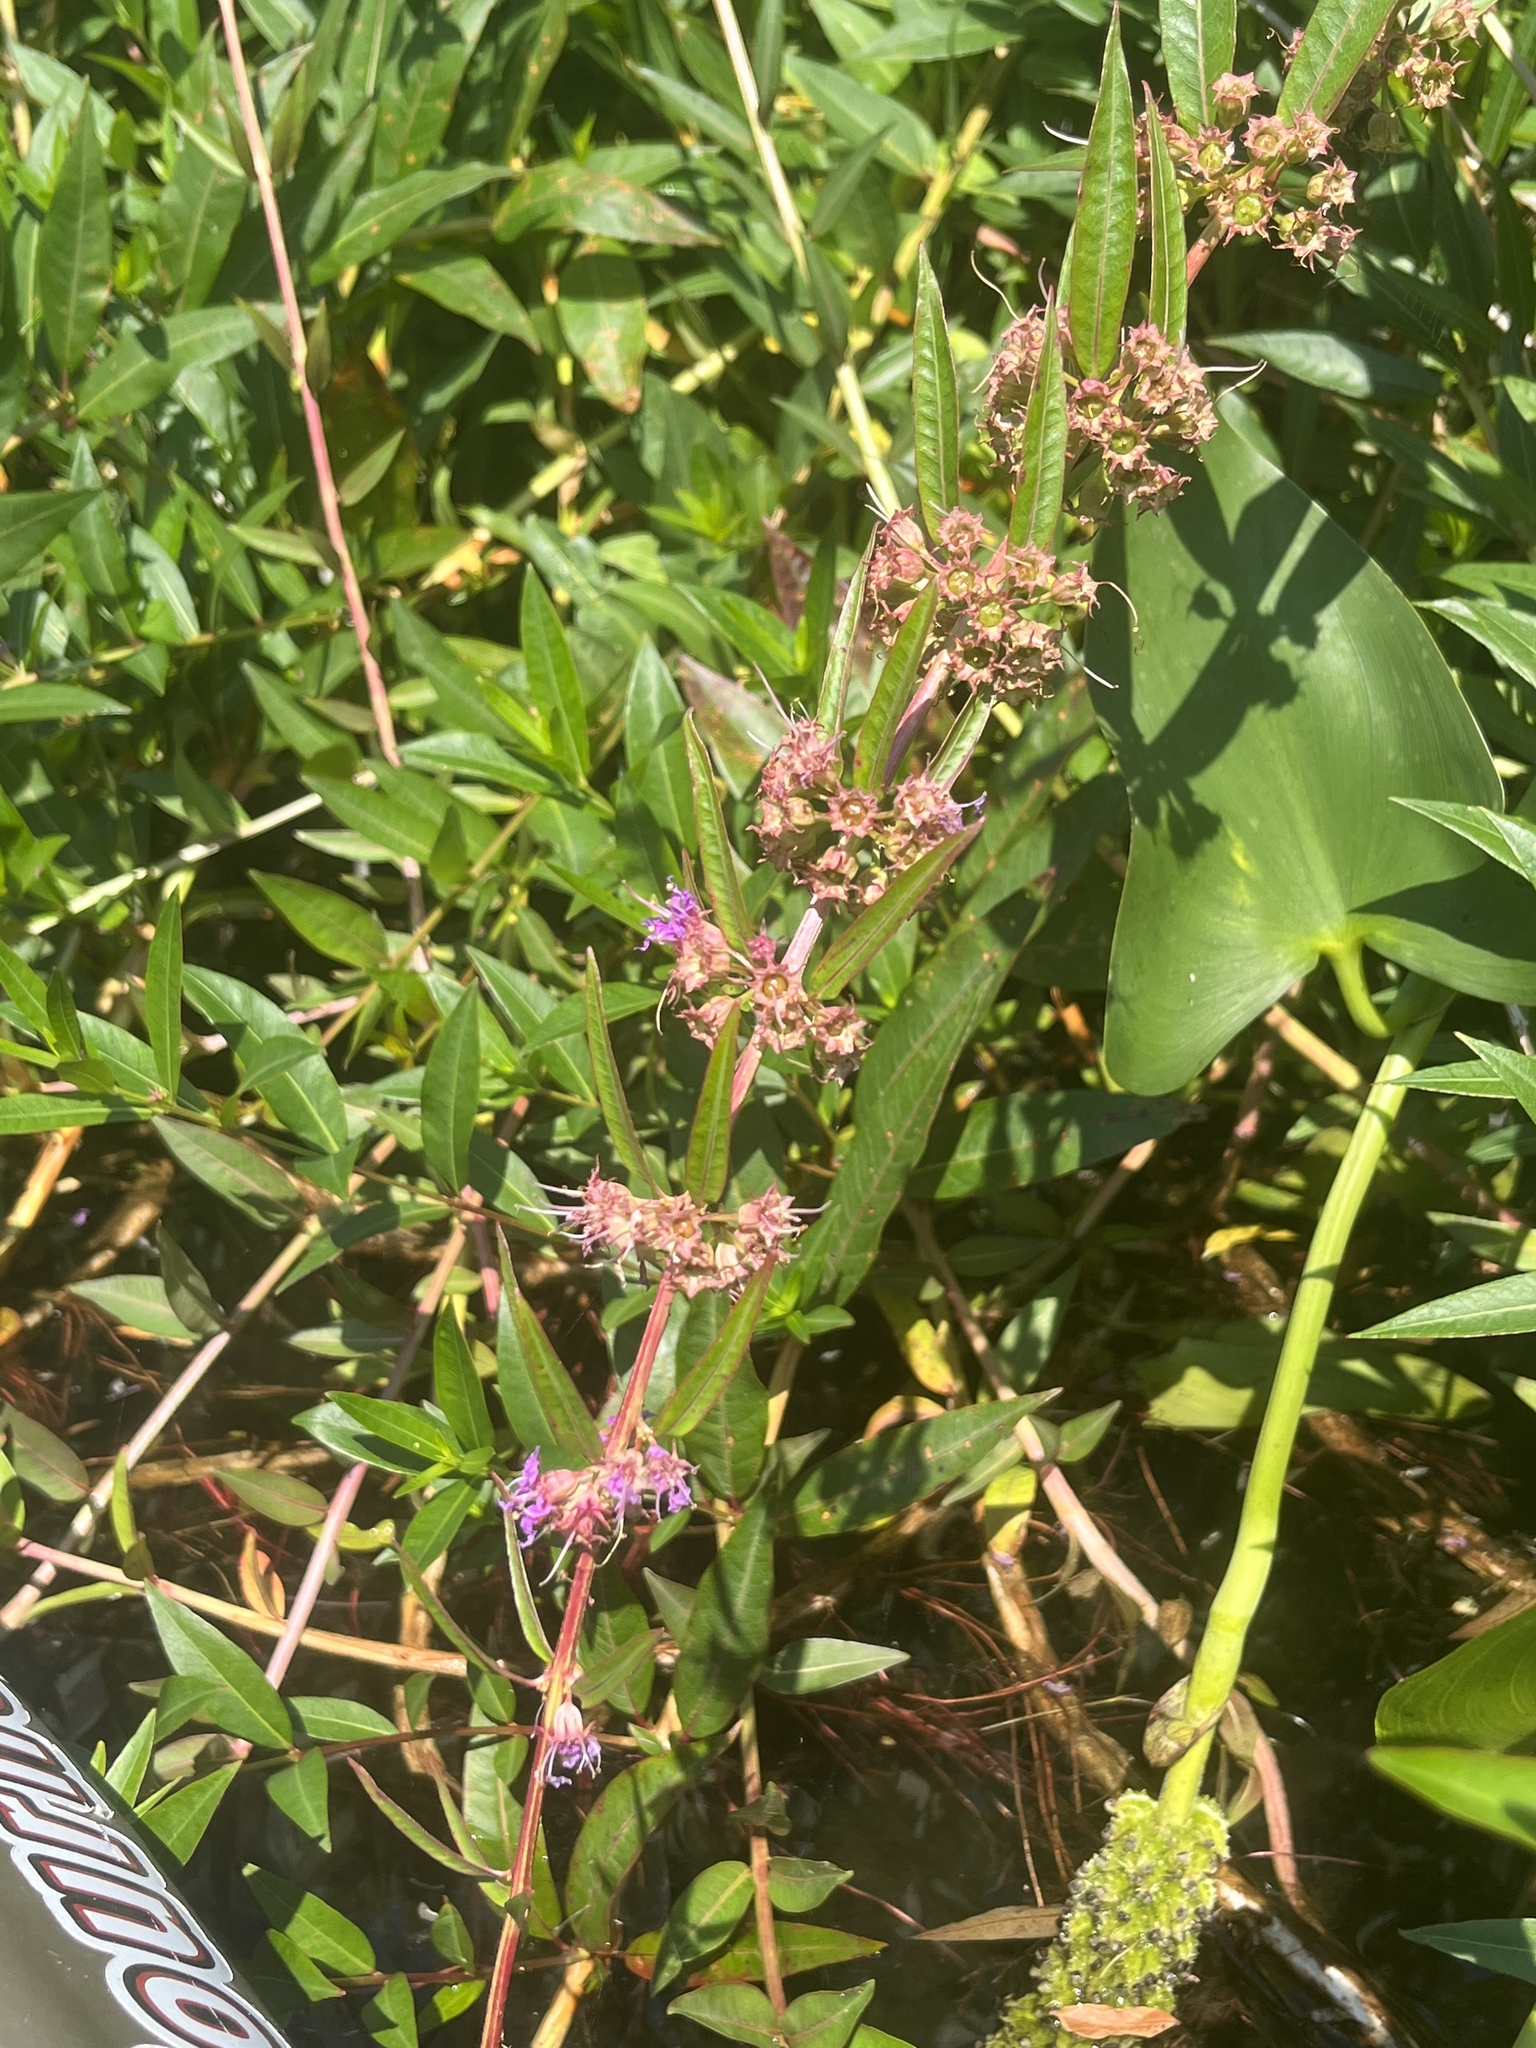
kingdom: Plantae
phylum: Tracheophyta
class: Magnoliopsida
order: Myrtales
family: Lythraceae
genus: Decodon
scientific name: Decodon verticillatus
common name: Hairy swamp loosestrife
